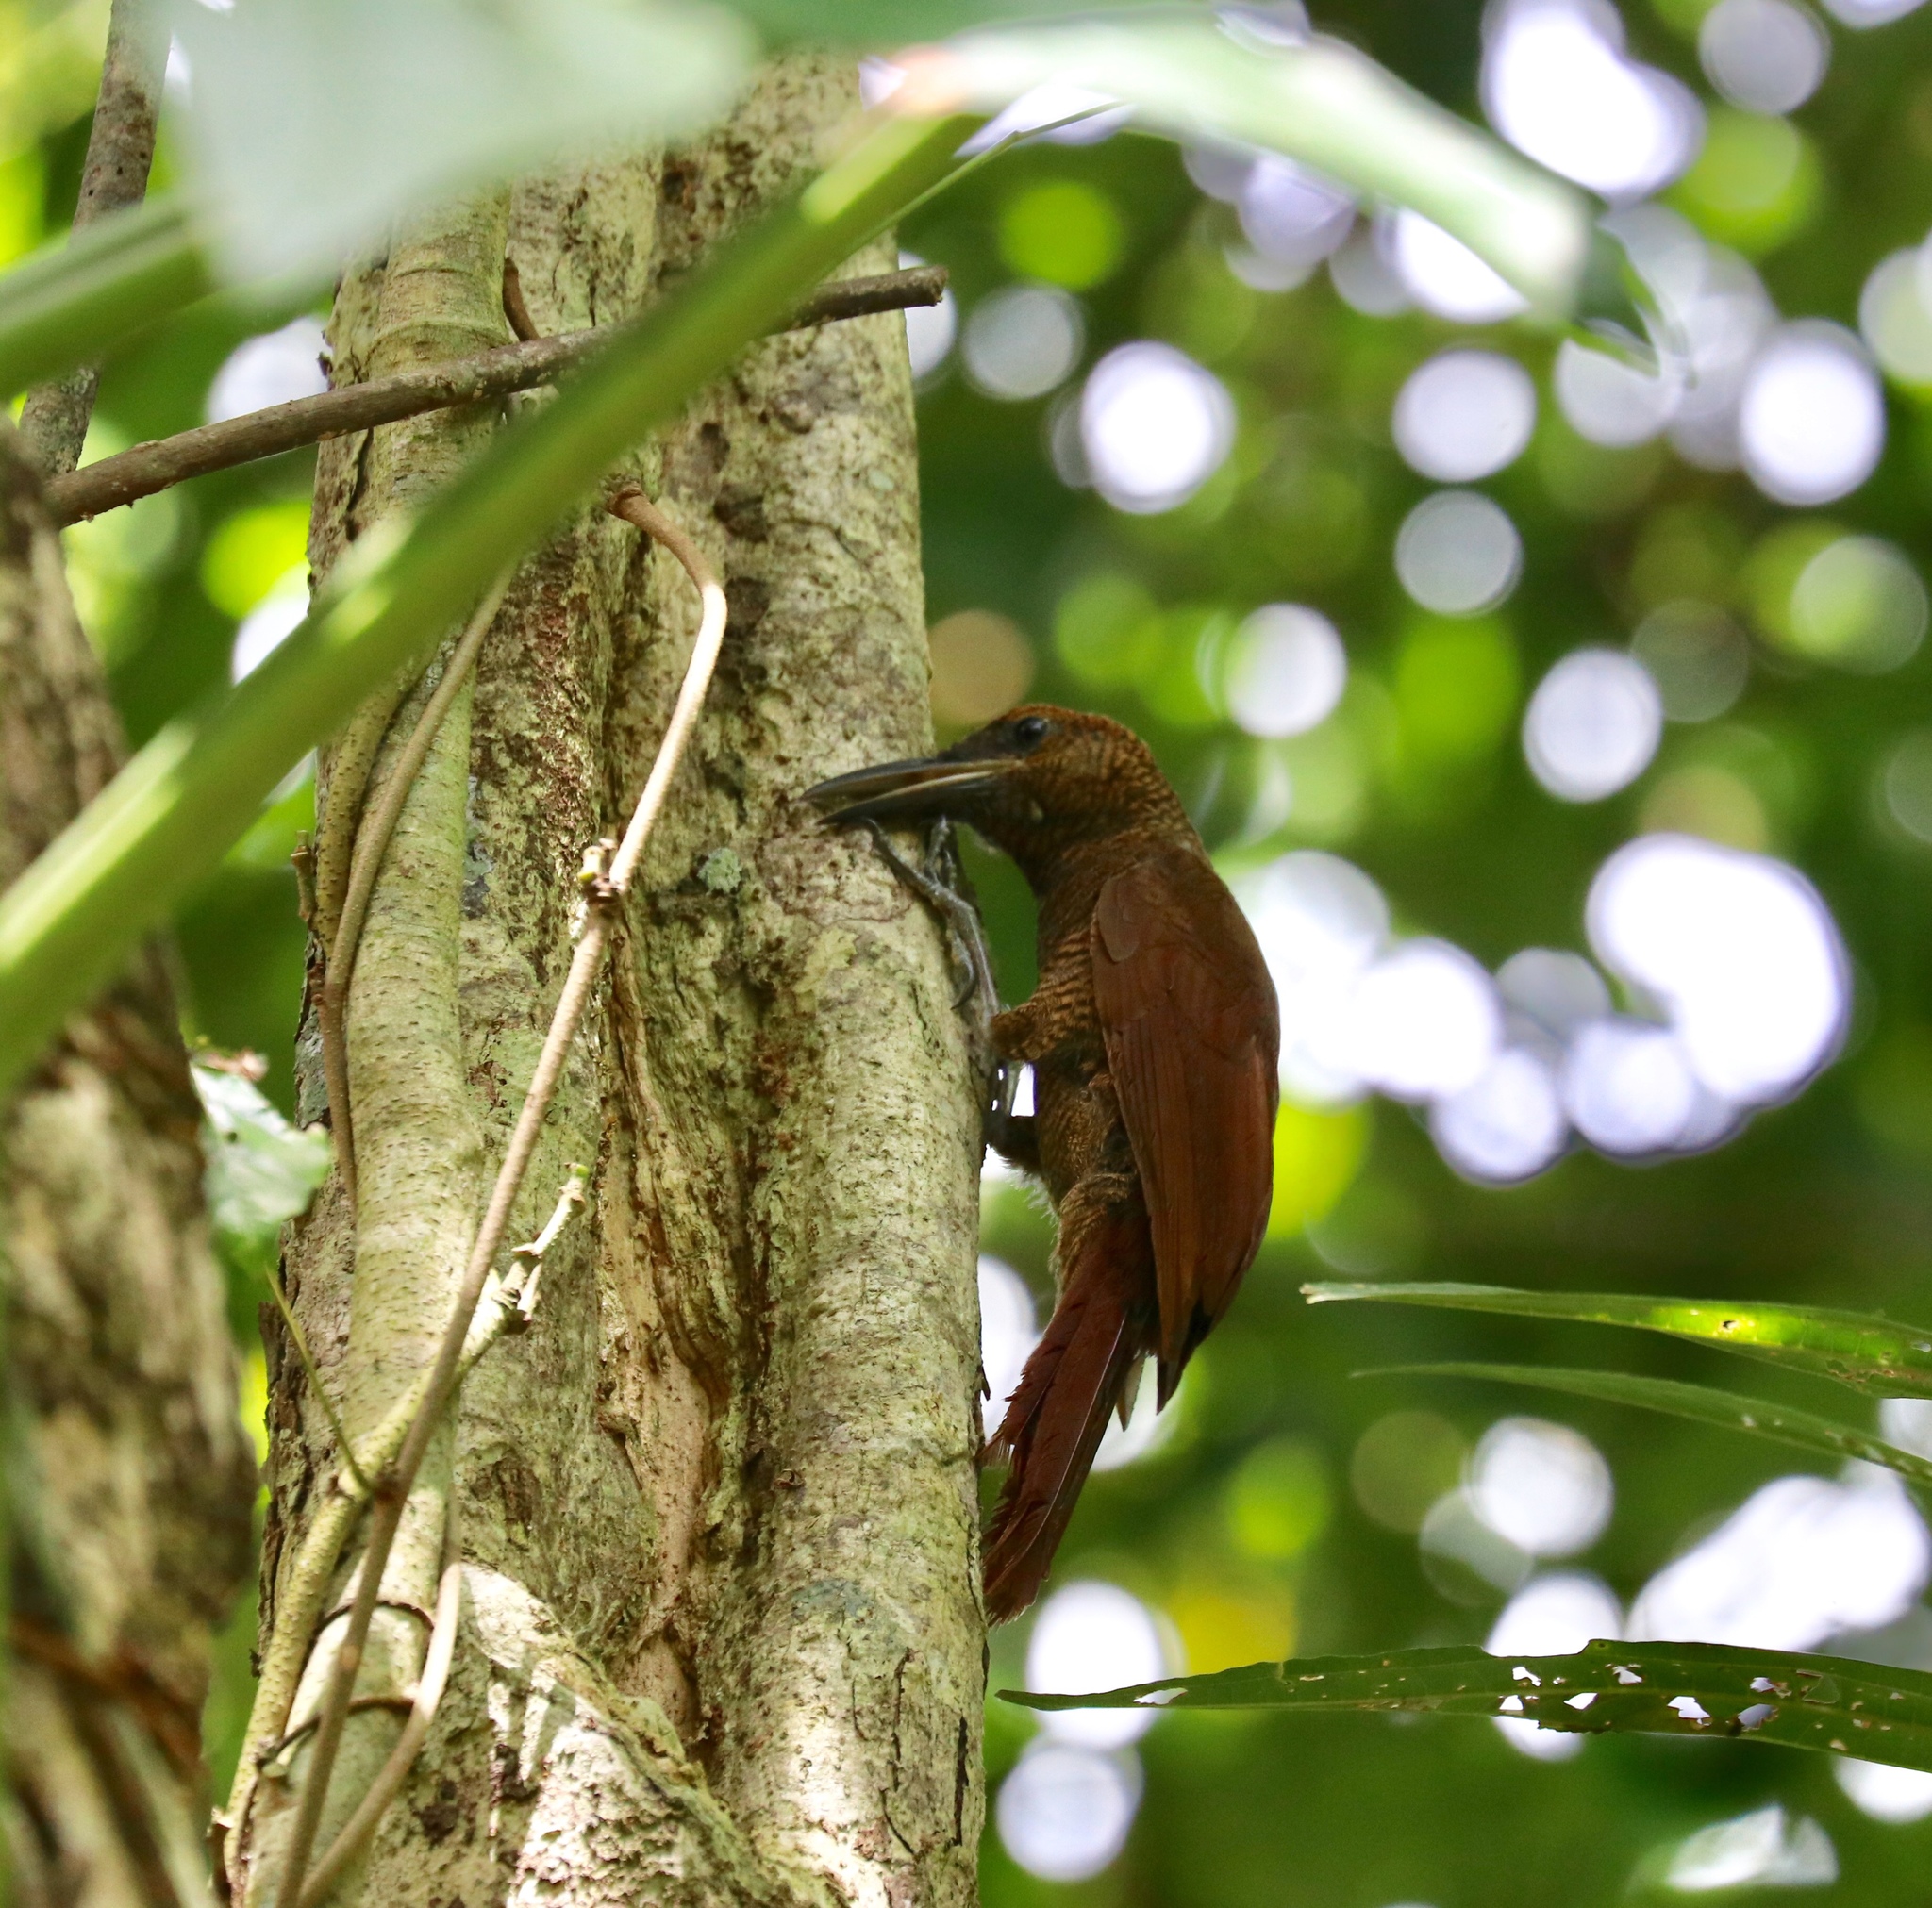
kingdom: Animalia
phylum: Chordata
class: Aves
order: Passeriformes
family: Furnariidae
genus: Dendrocolaptes
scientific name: Dendrocolaptes sanctithomae
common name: Northern barred-woodcreeper
